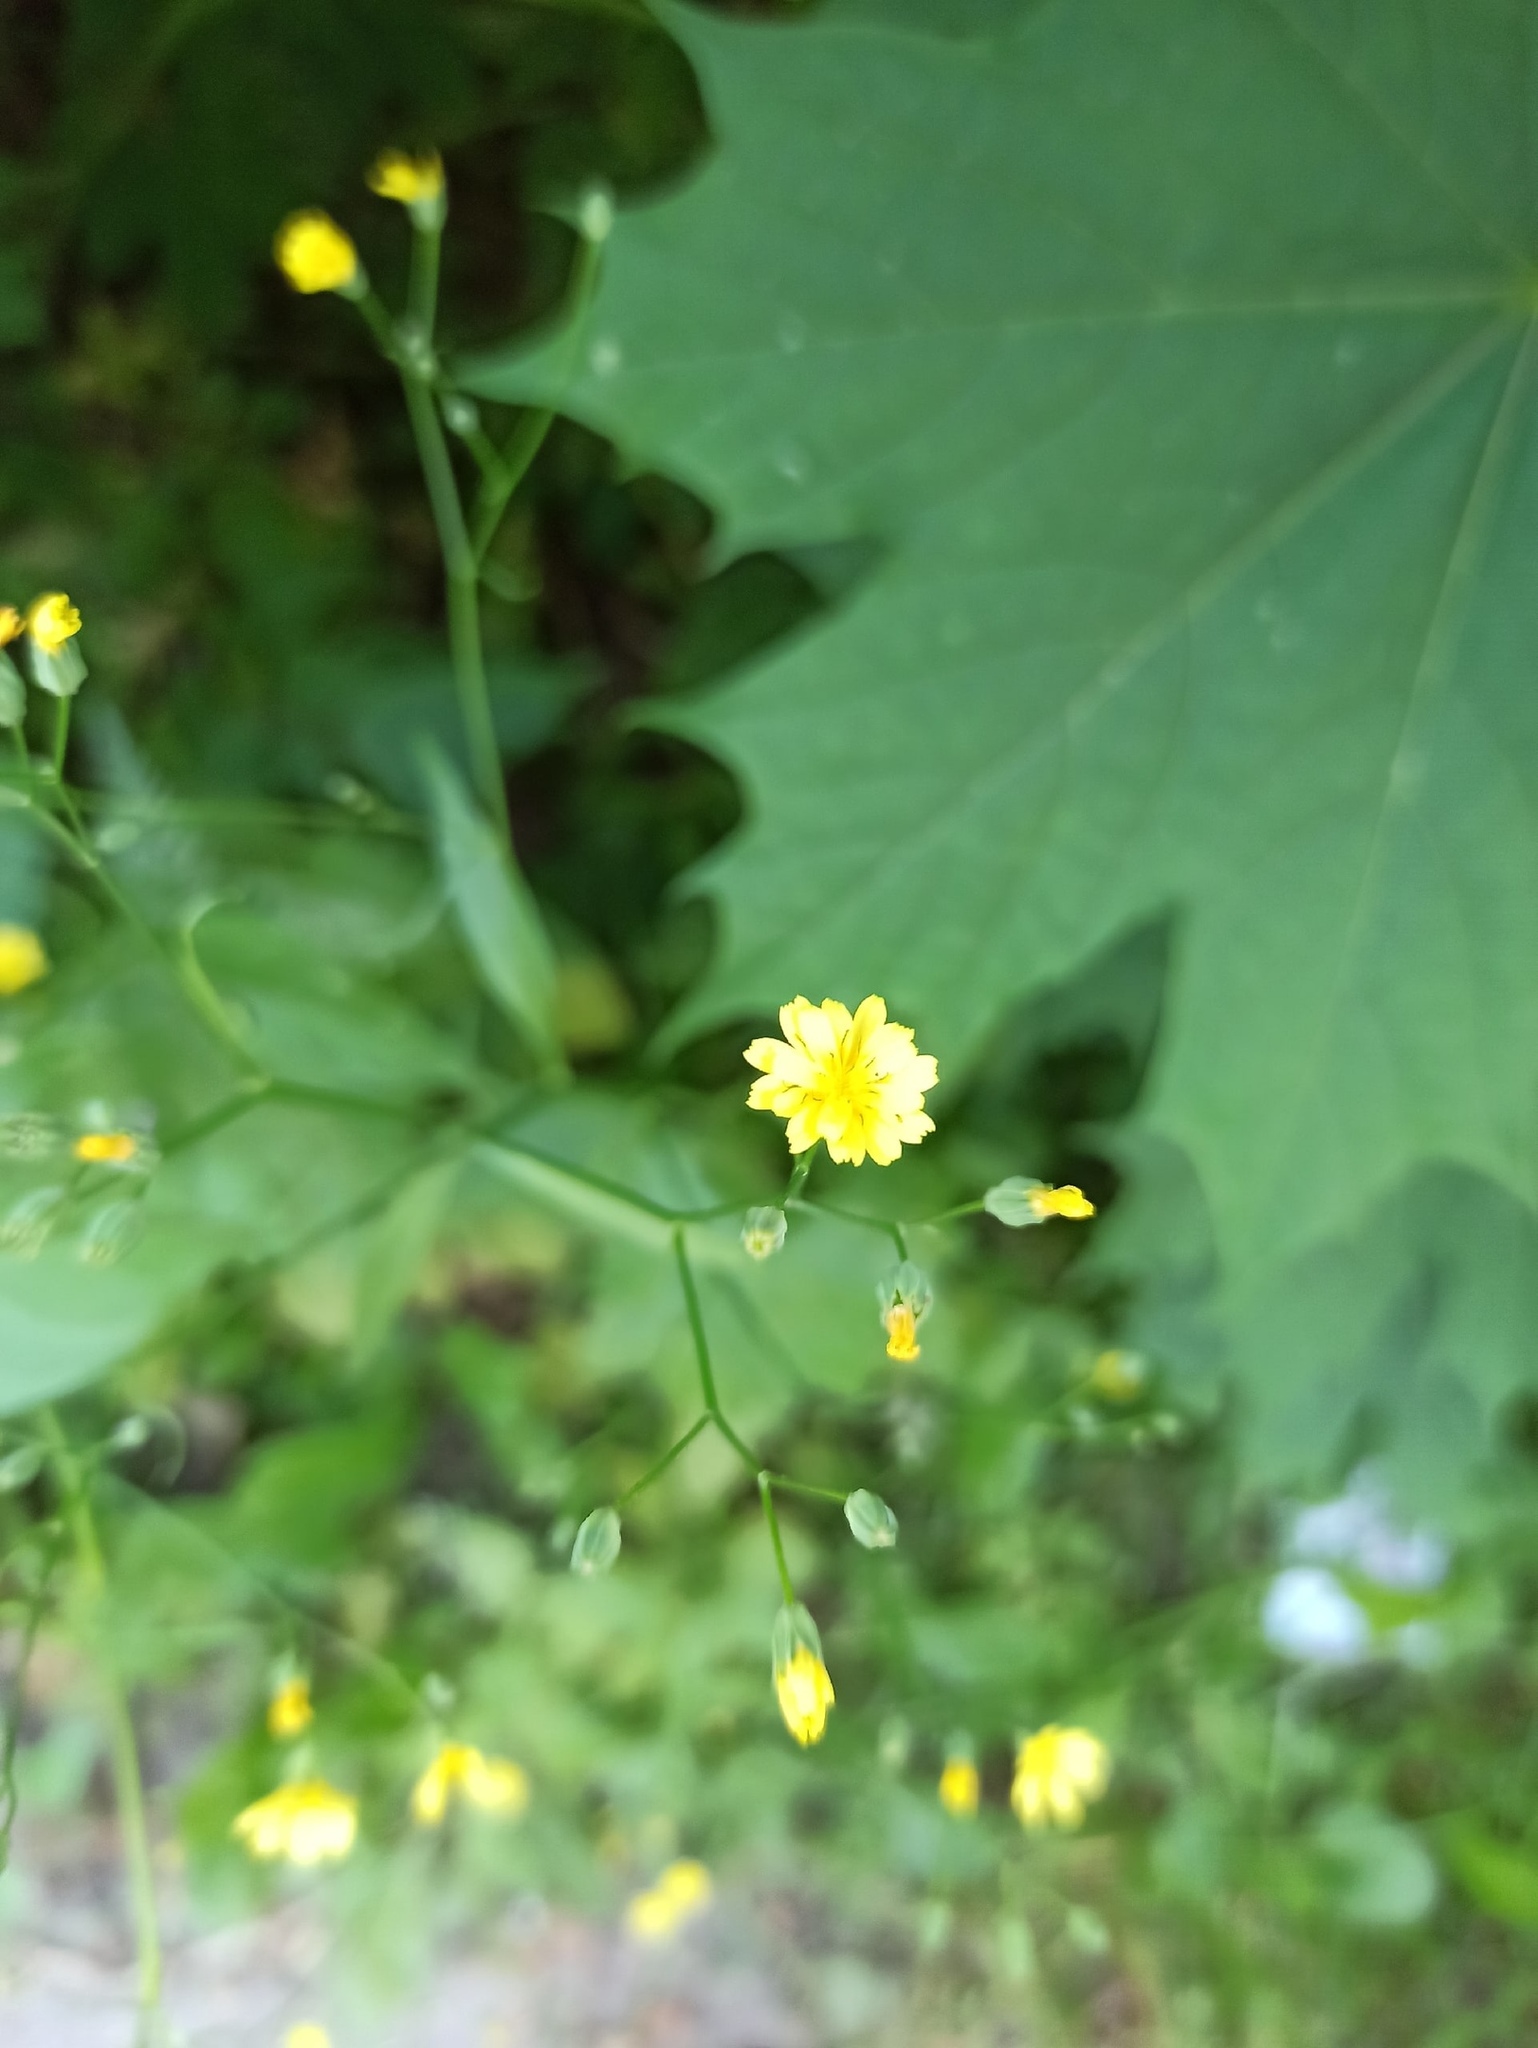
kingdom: Plantae
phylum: Tracheophyta
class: Magnoliopsida
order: Asterales
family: Asteraceae
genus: Lapsana
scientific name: Lapsana communis
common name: Nipplewort
